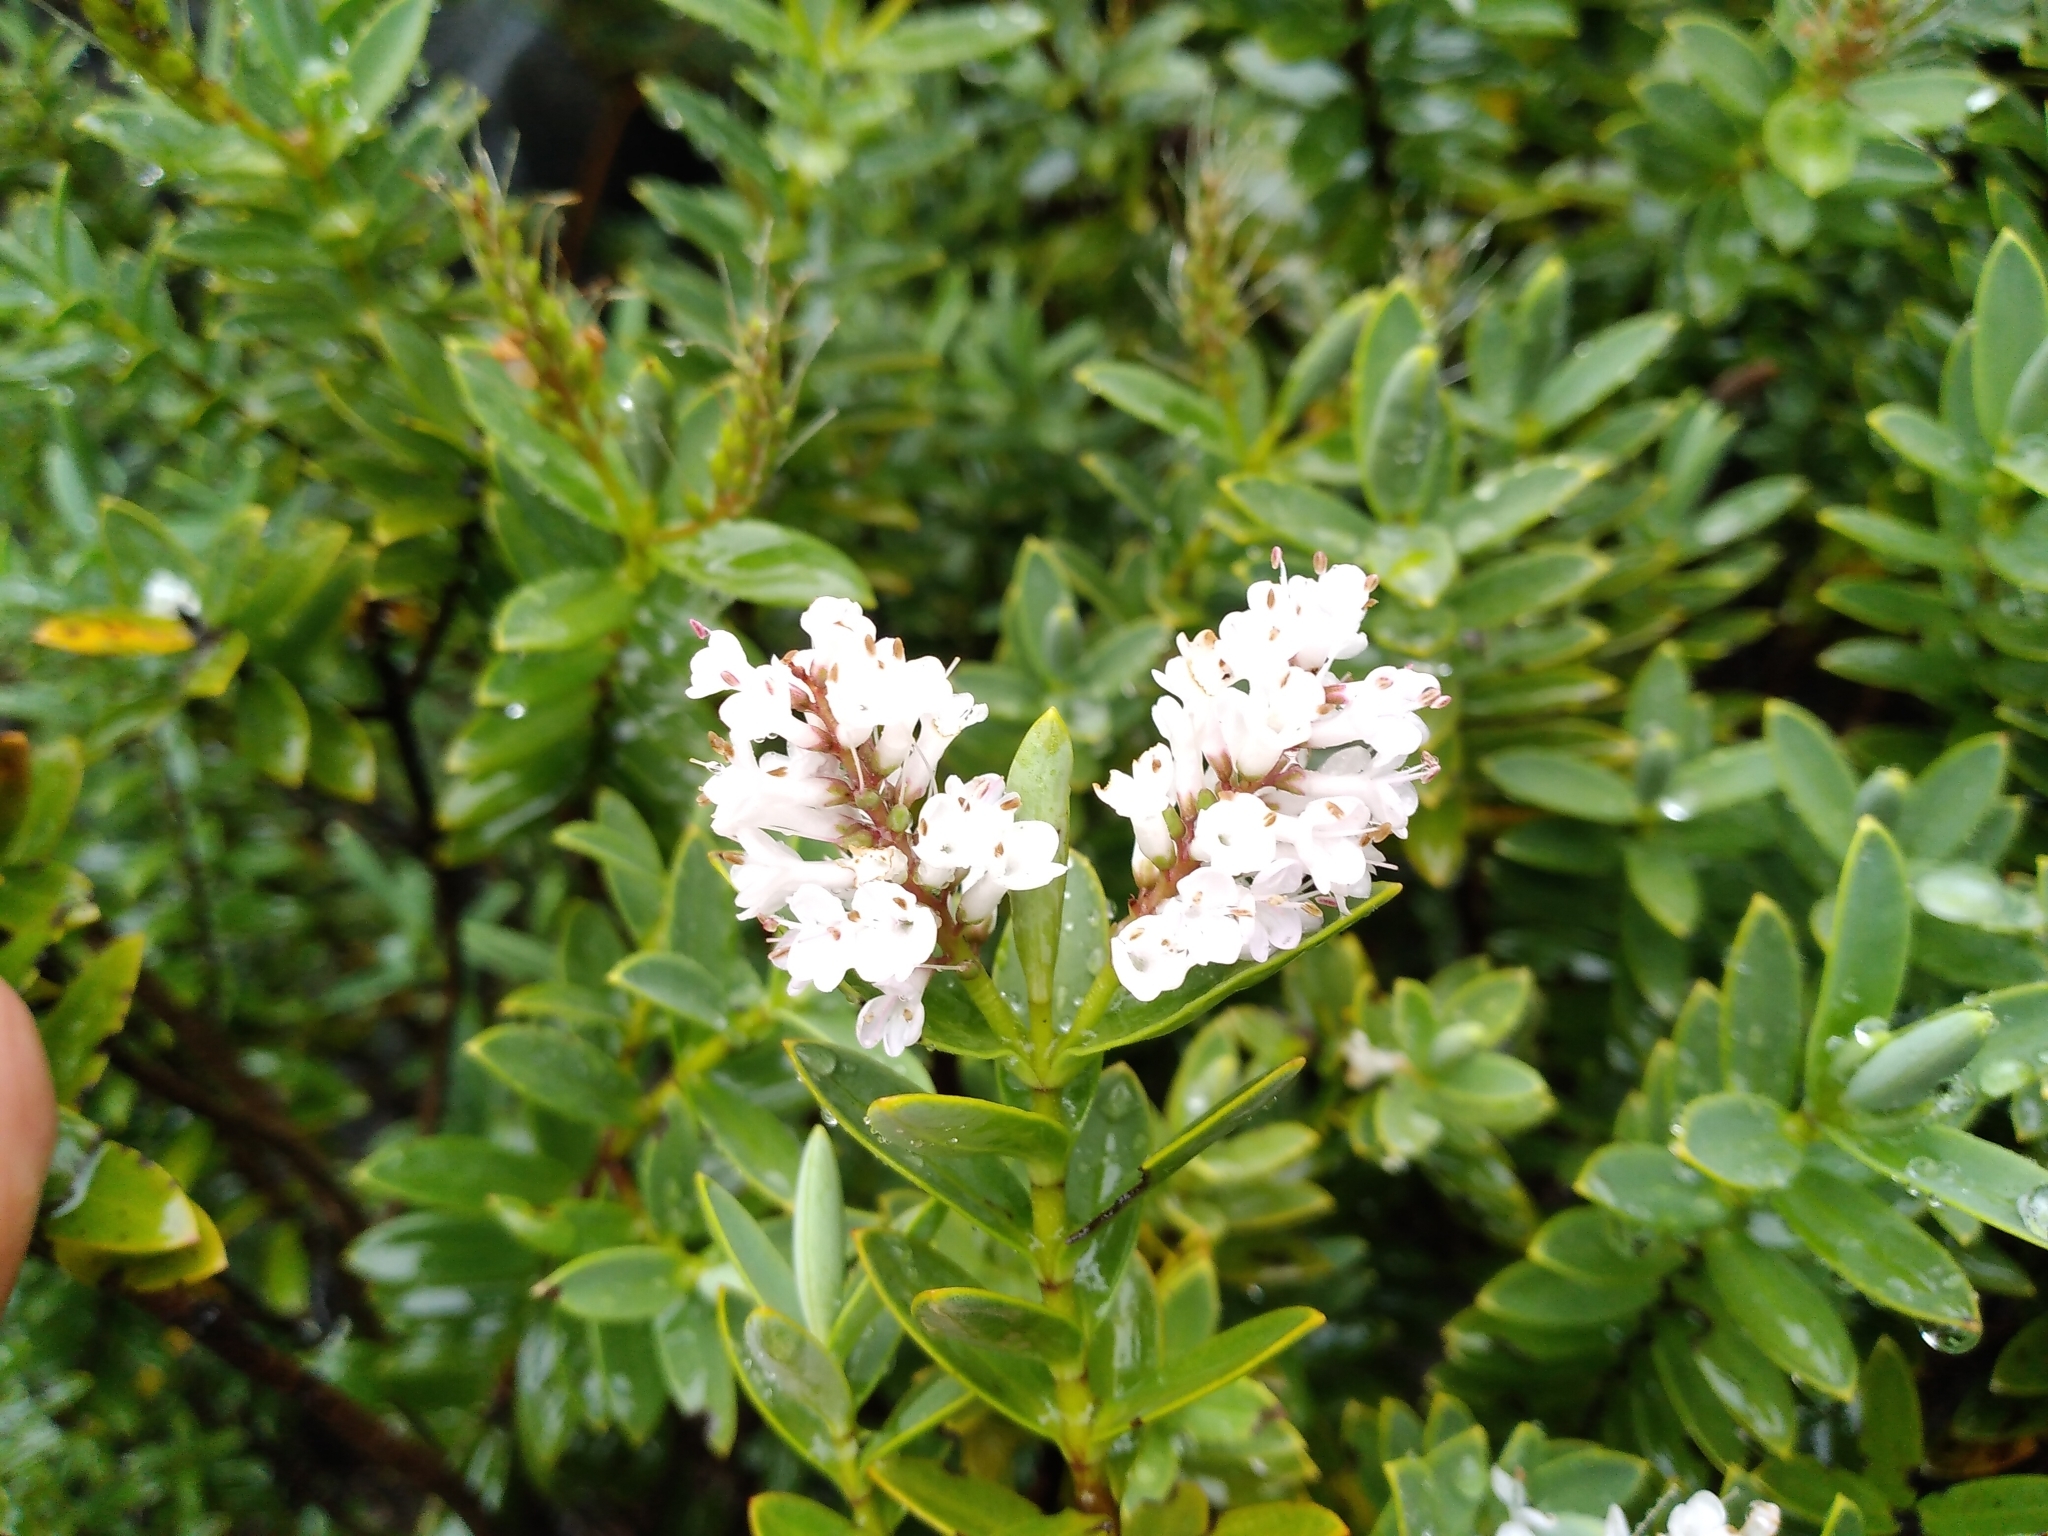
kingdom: Plantae
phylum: Tracheophyta
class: Magnoliopsida
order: Lamiales
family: Plantaginaceae
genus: Veronica
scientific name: Veronica topiaria
